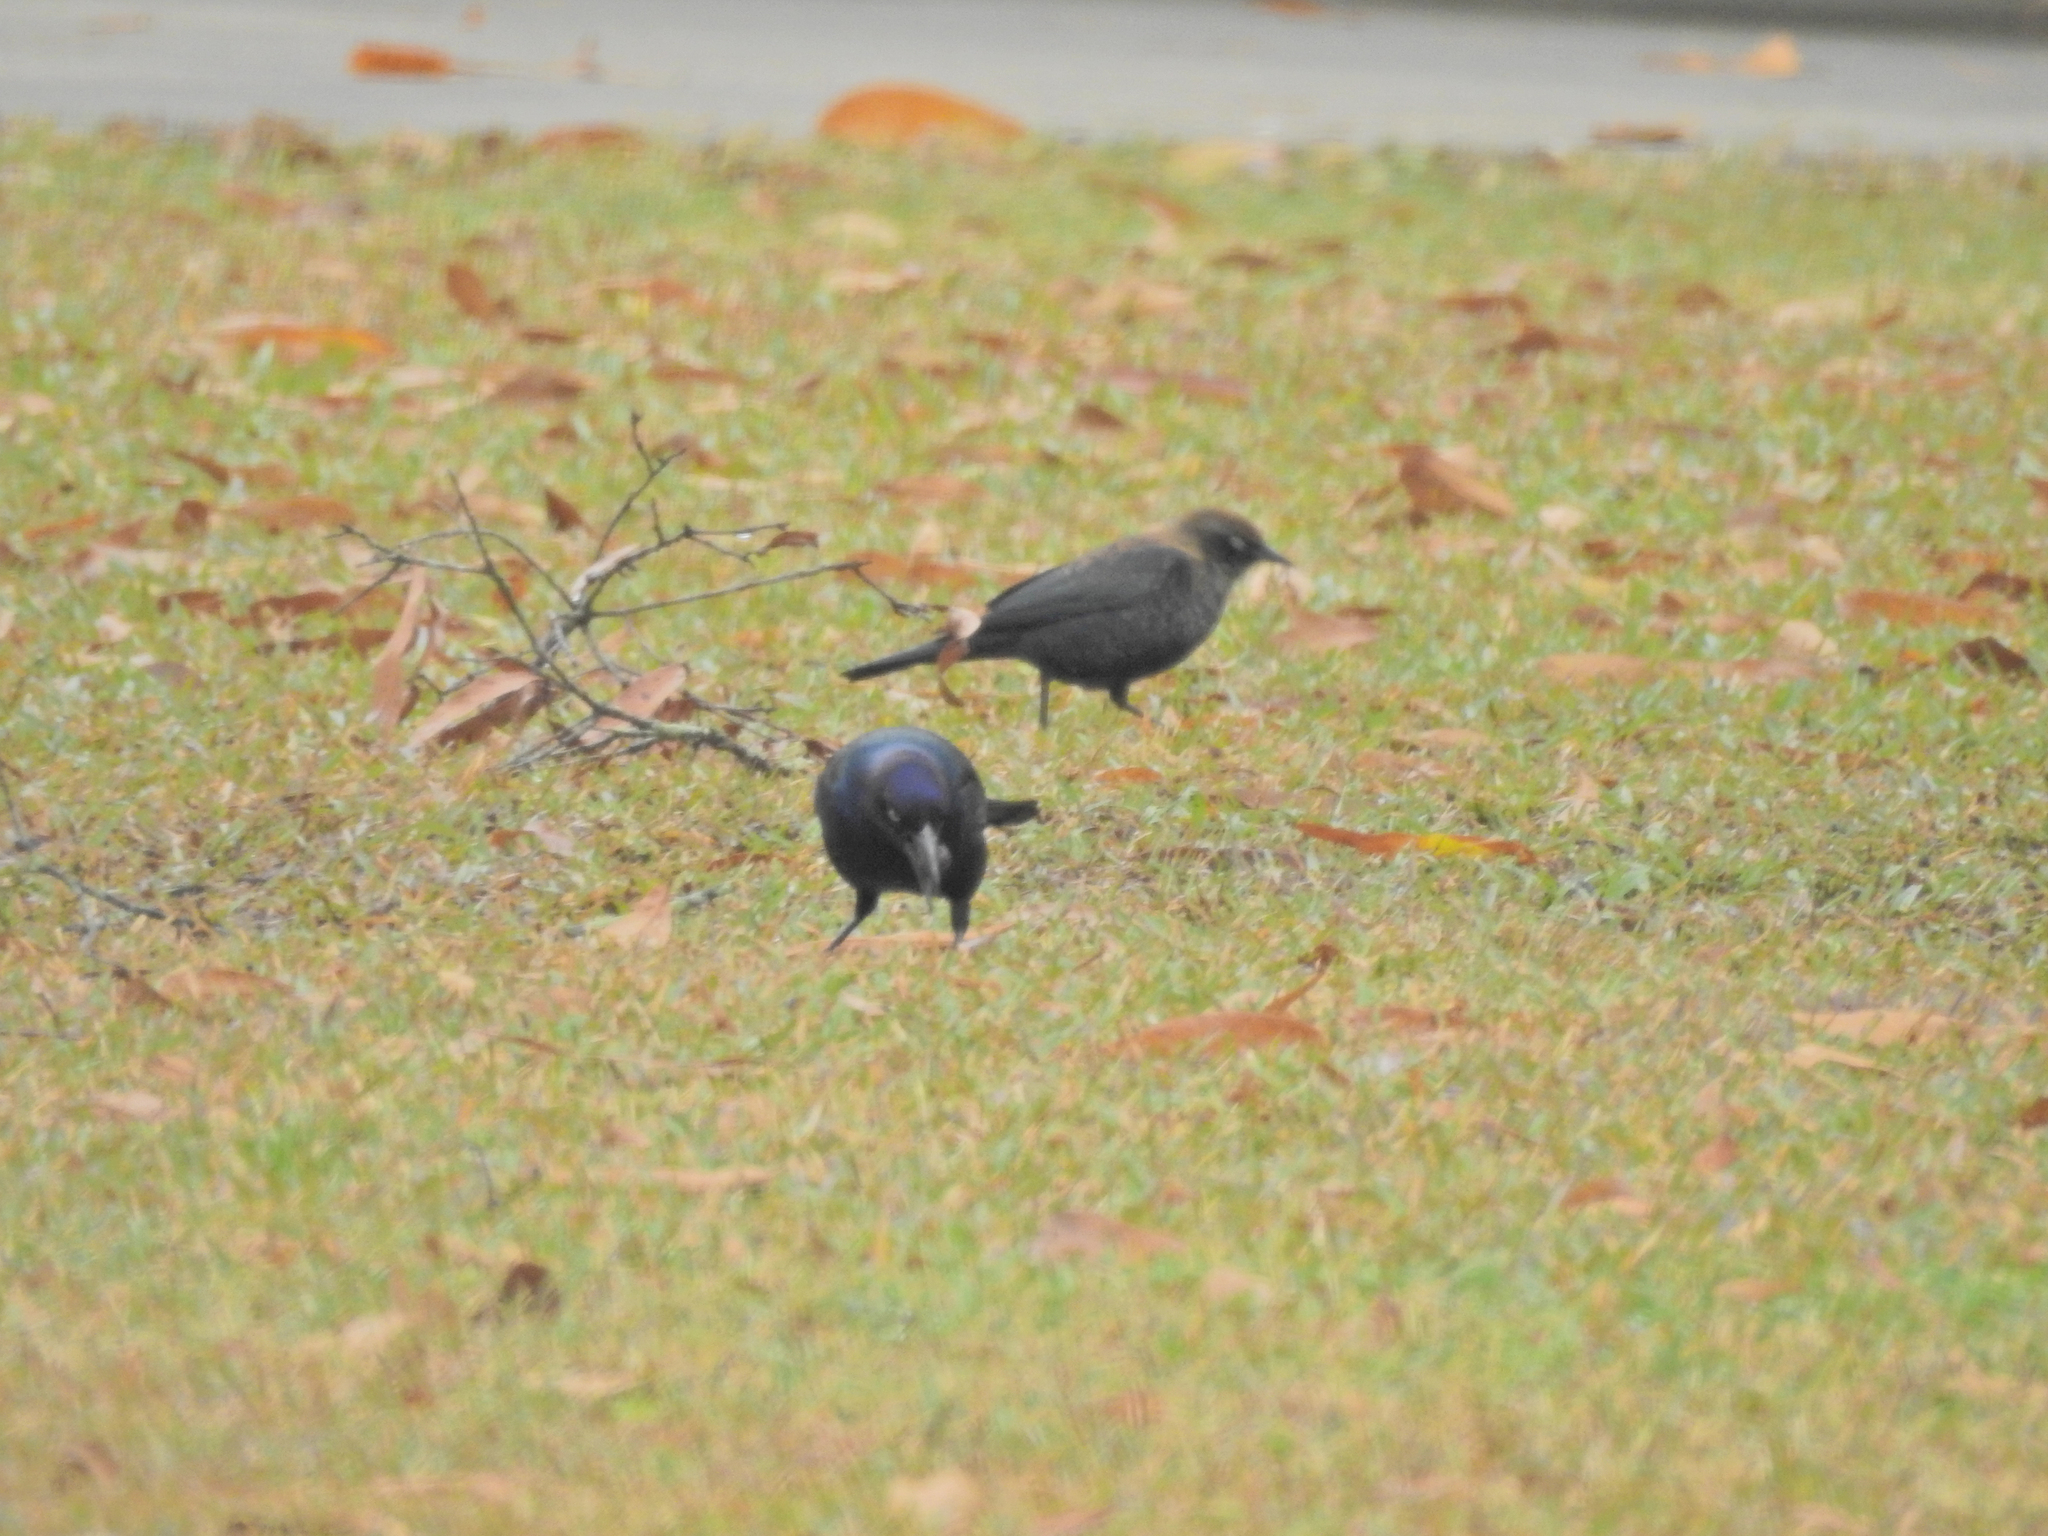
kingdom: Animalia
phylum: Chordata
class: Aves
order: Passeriformes
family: Icteridae
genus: Quiscalus
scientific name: Quiscalus quiscula
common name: Common grackle
